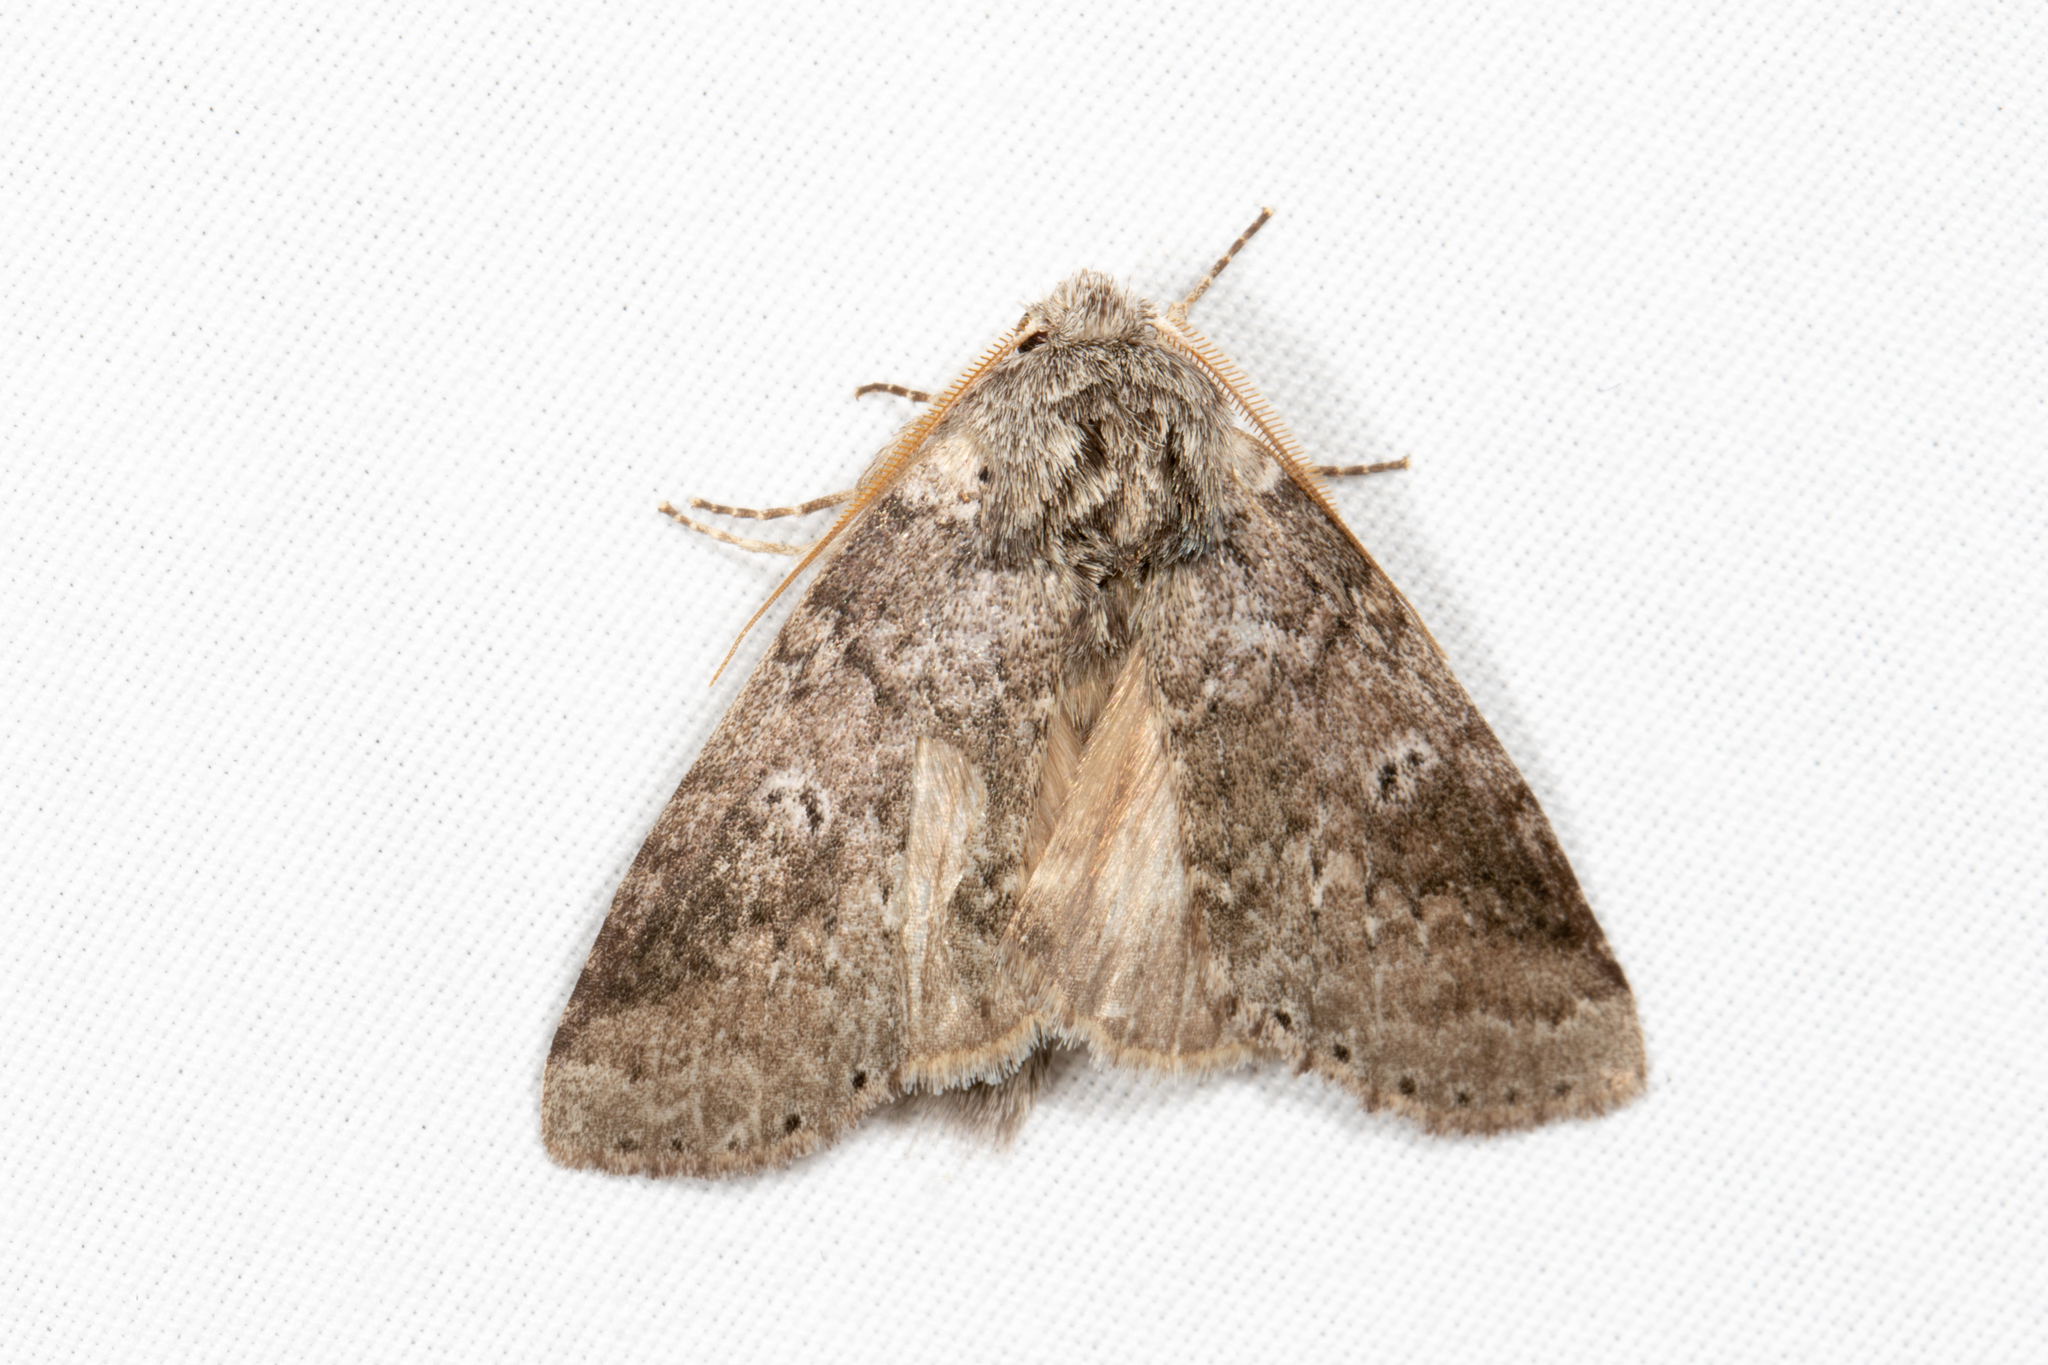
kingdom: Animalia
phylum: Arthropoda
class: Insecta
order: Lepidoptera
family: Notodontidae
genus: Lochmaeus
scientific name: Lochmaeus manteo
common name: Variable oakleaf caterpillar moth
